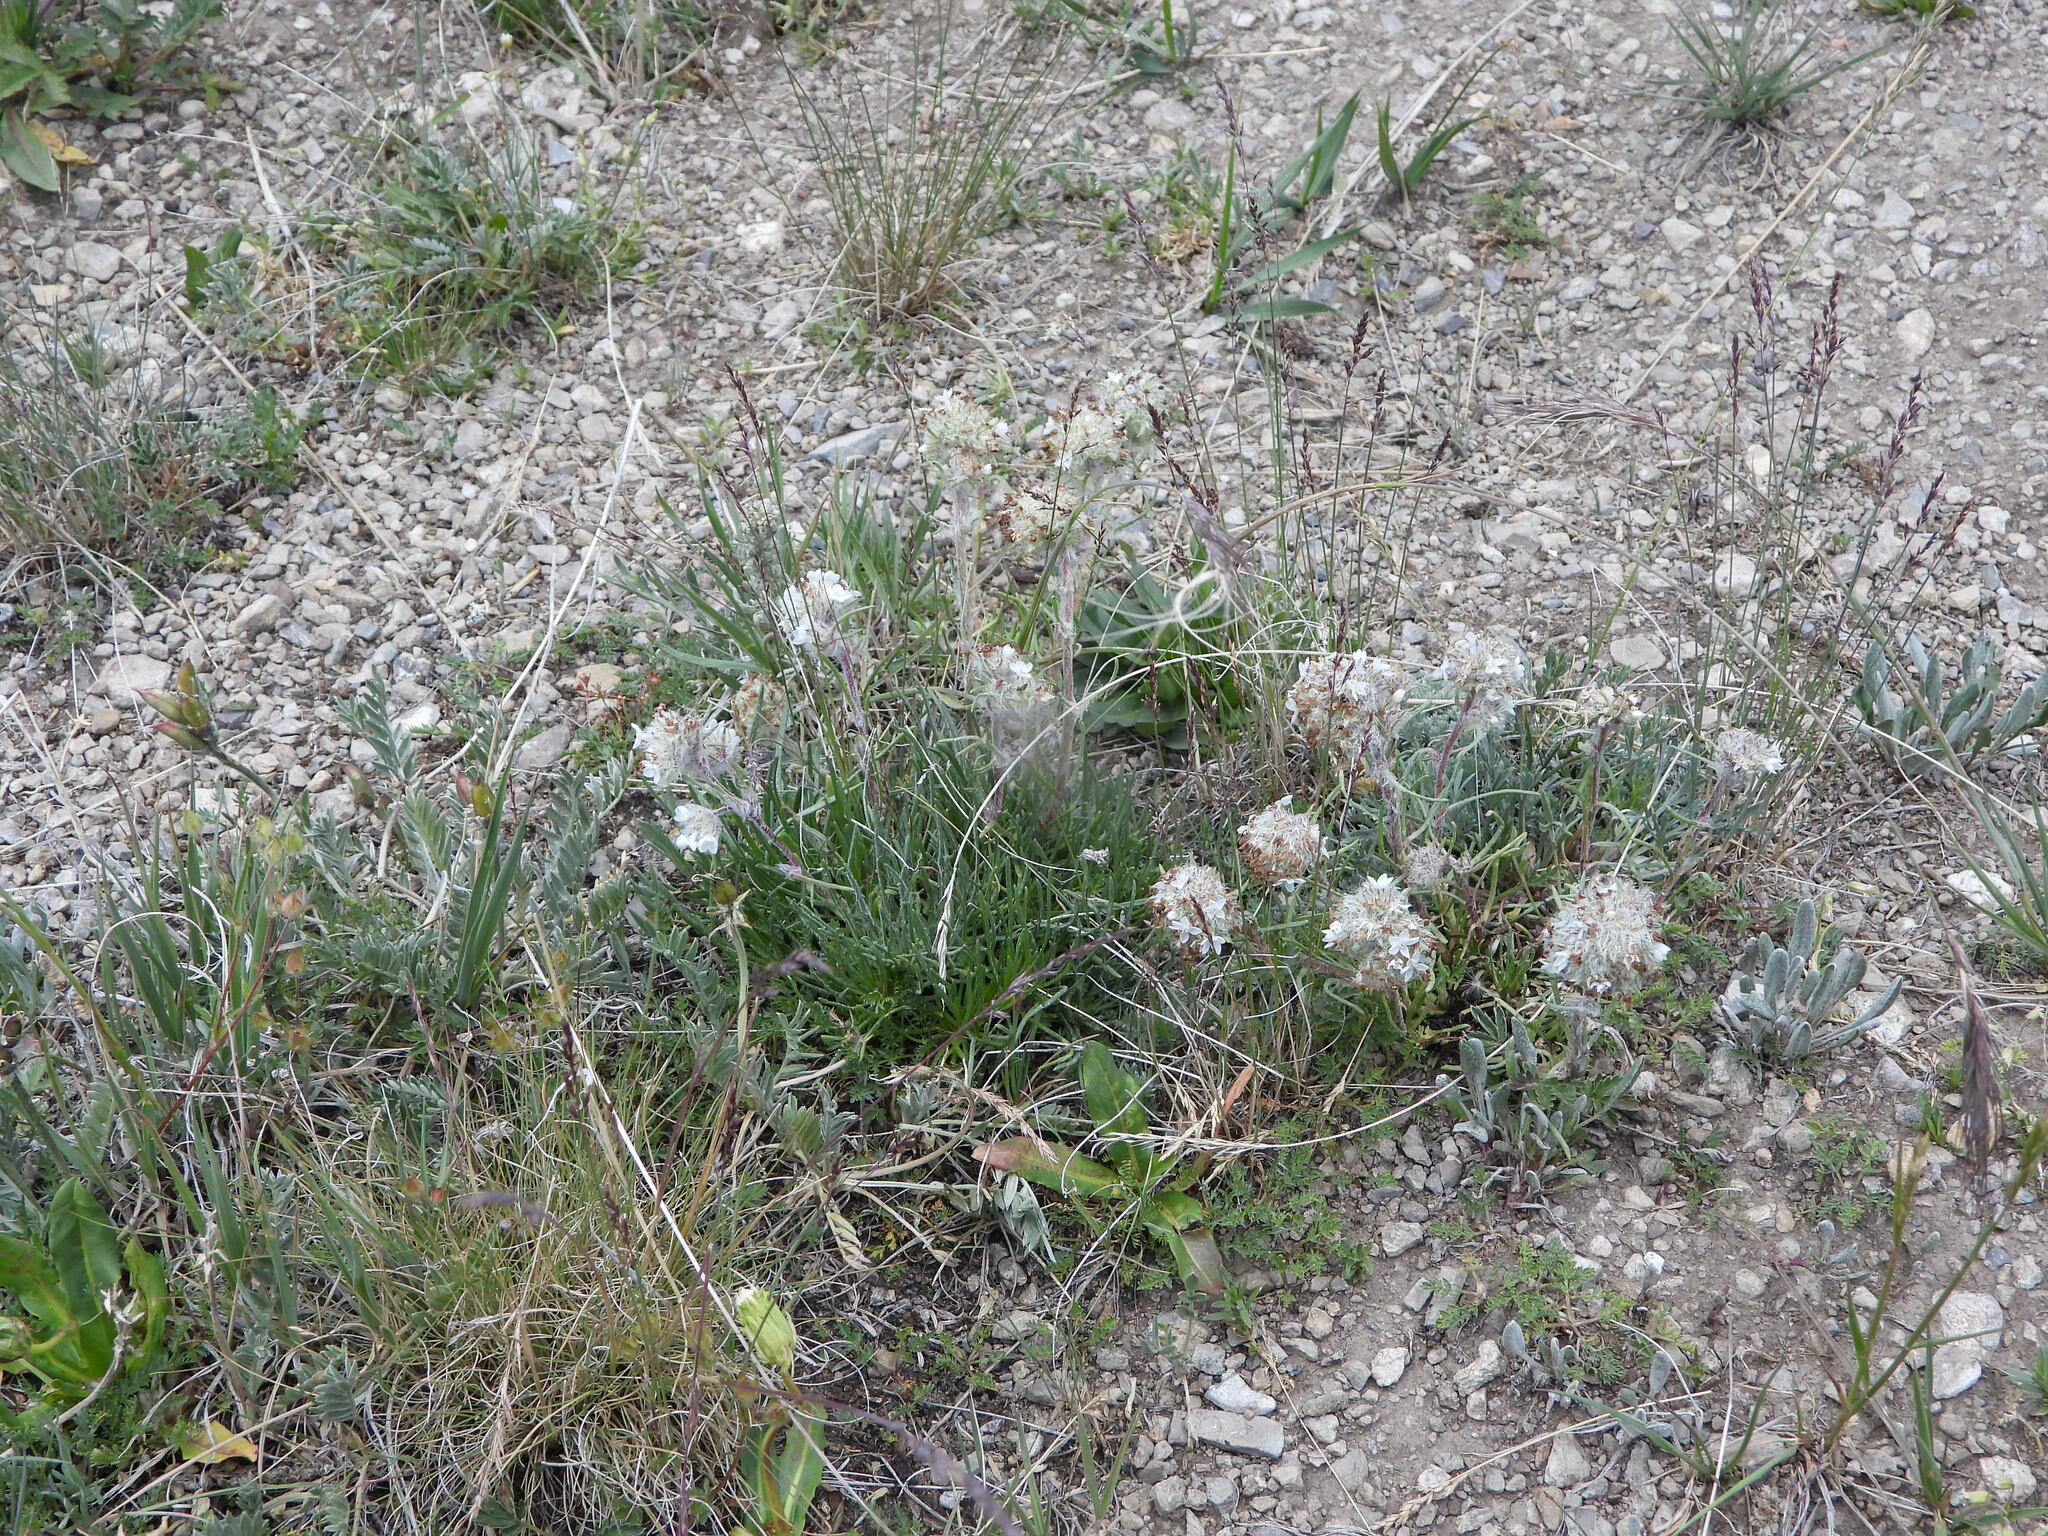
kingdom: Plantae
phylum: Tracheophyta
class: Magnoliopsida
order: Ericales
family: Polemoniaceae
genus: Ipomopsis
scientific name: Ipomopsis globularis
